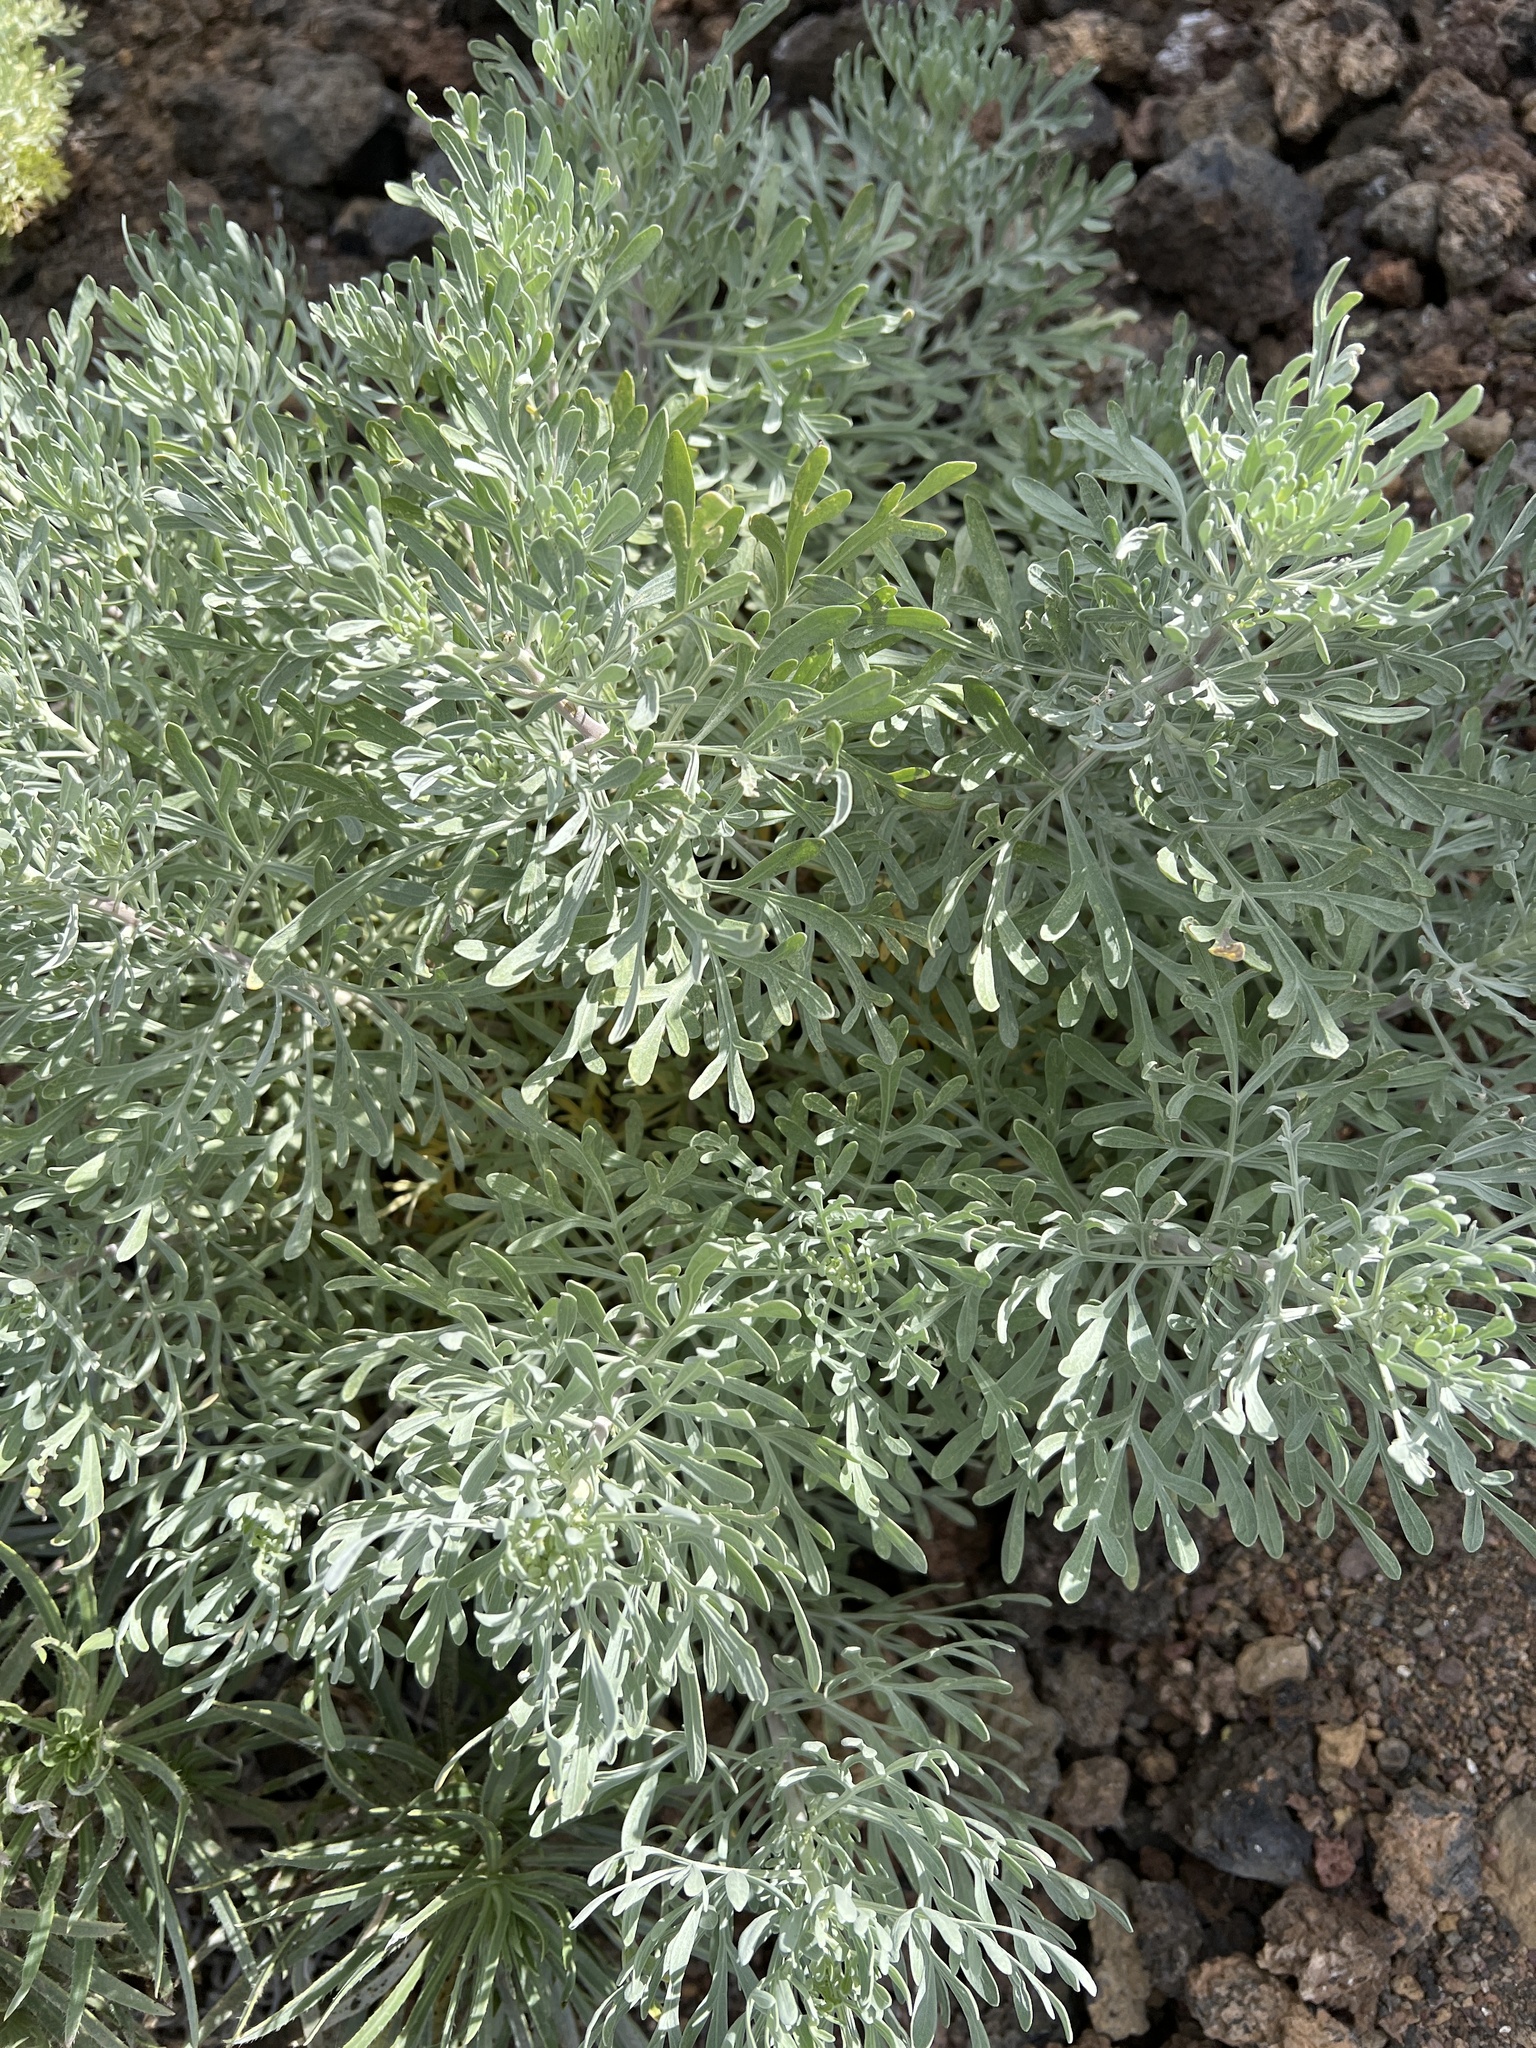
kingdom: Plantae
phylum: Tracheophyta
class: Magnoliopsida
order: Asterales
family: Asteraceae
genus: Artemisia
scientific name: Artemisia thuscula
